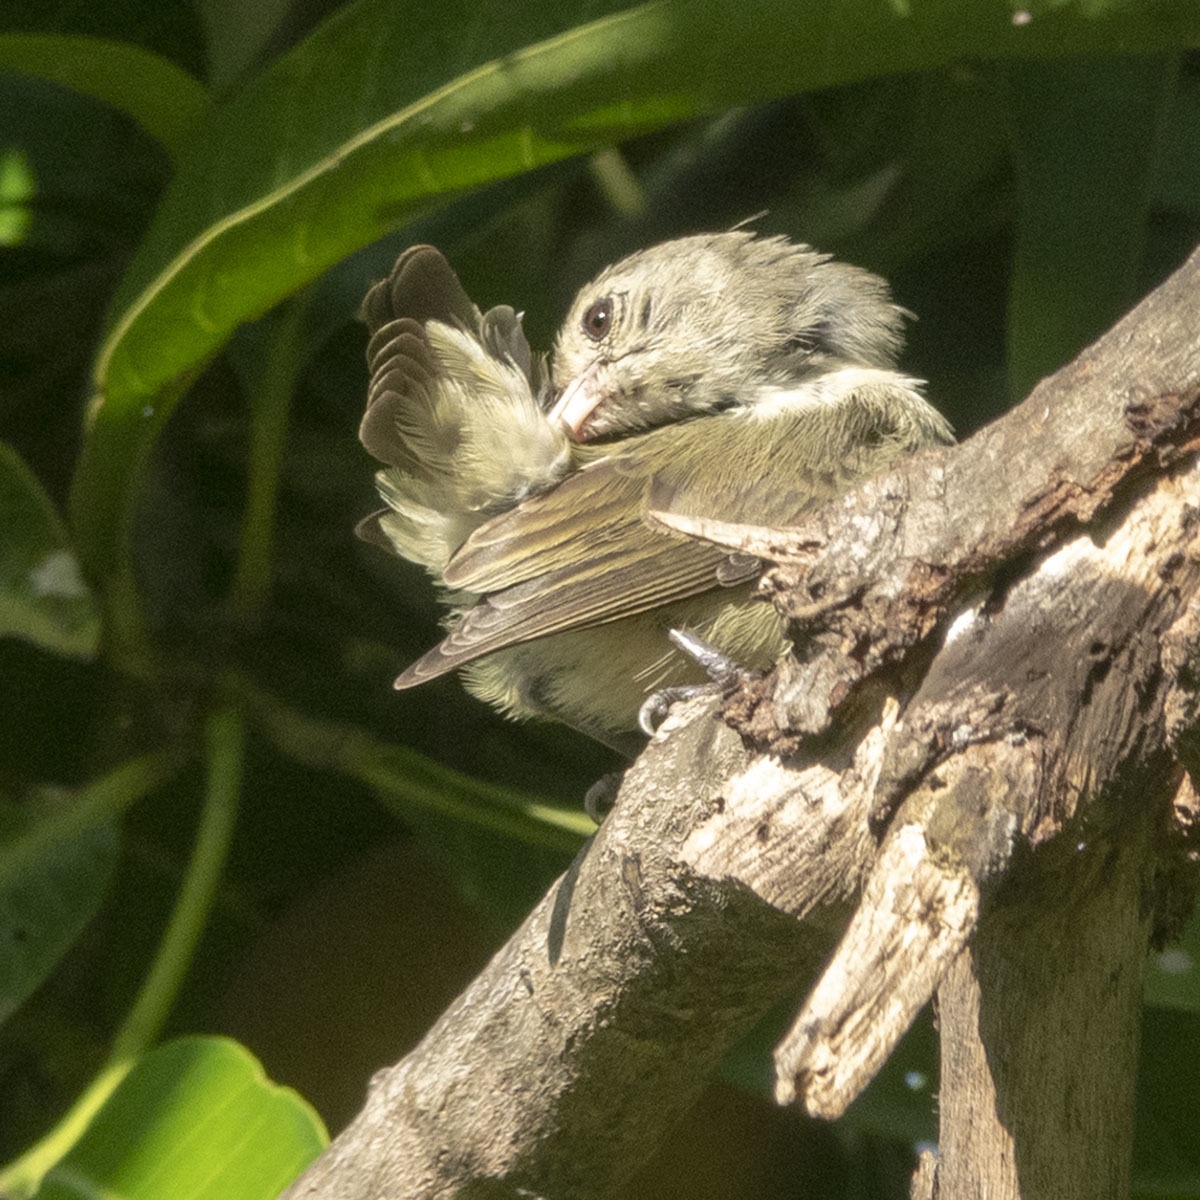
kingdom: Animalia
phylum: Chordata
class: Aves
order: Passeriformes
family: Dicaeidae
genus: Dicaeum
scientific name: Dicaeum erythrorhynchos
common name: Pale-billed flowerpecker
